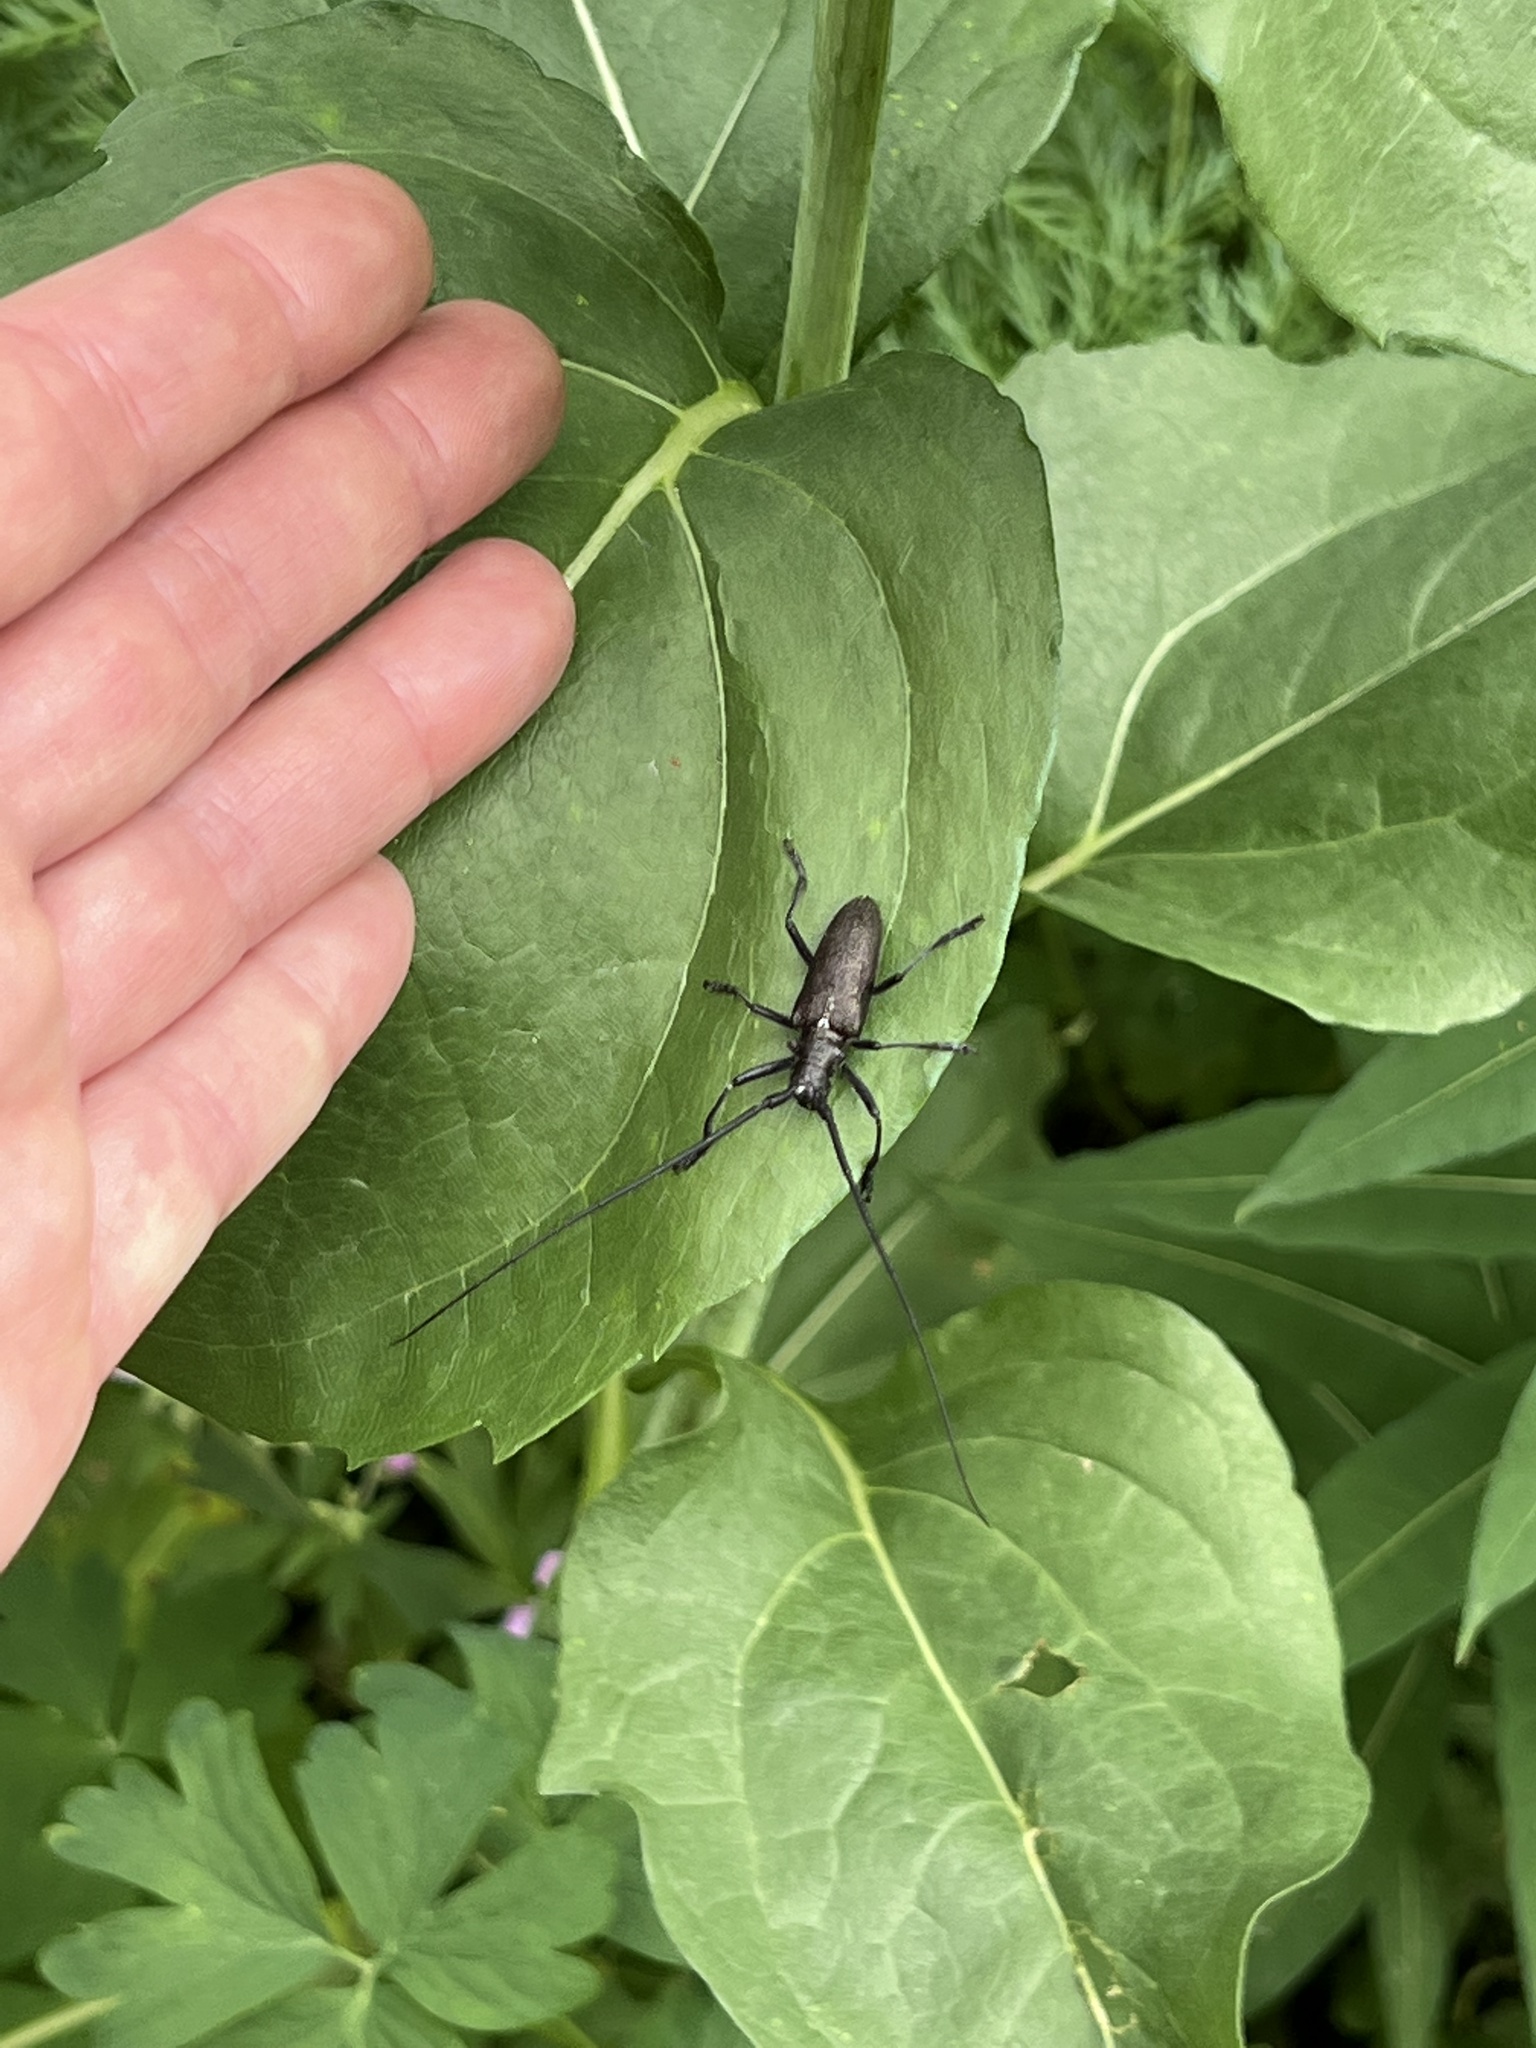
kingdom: Animalia
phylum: Arthropoda
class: Insecta
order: Coleoptera
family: Cerambycidae
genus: Monochamus
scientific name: Monochamus scutellatus
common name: White-spotted sawyer beetle
